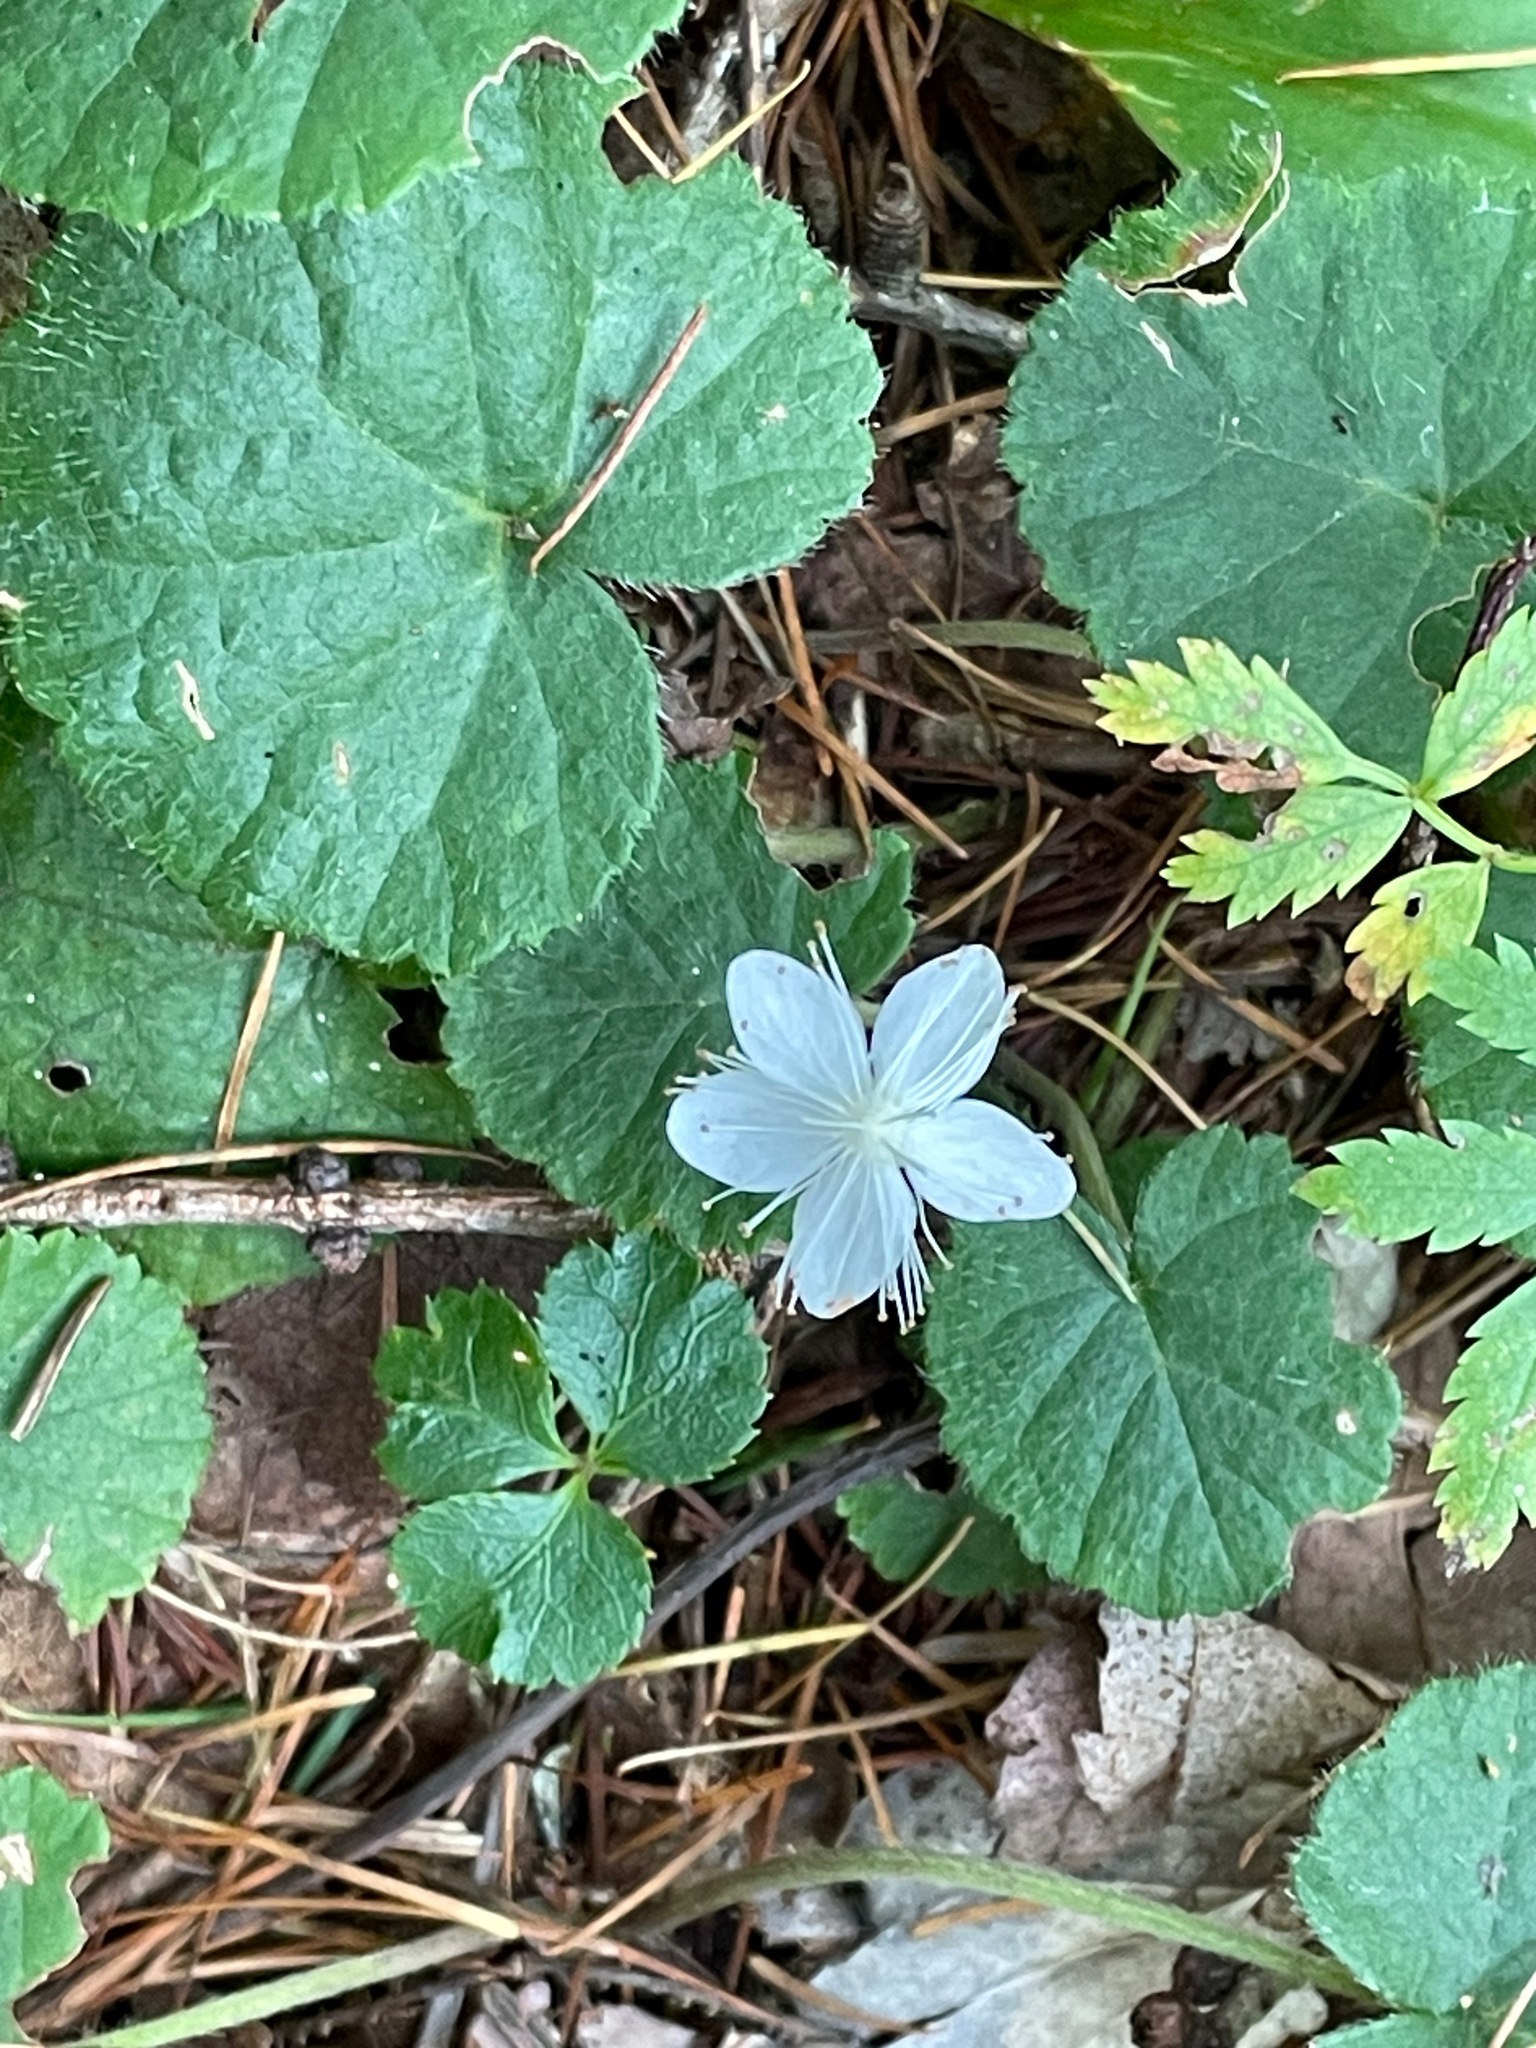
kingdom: Plantae
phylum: Tracheophyta
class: Magnoliopsida
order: Rosales
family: Rosaceae
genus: Dalibarda
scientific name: Dalibarda repens
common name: Dewdrop
